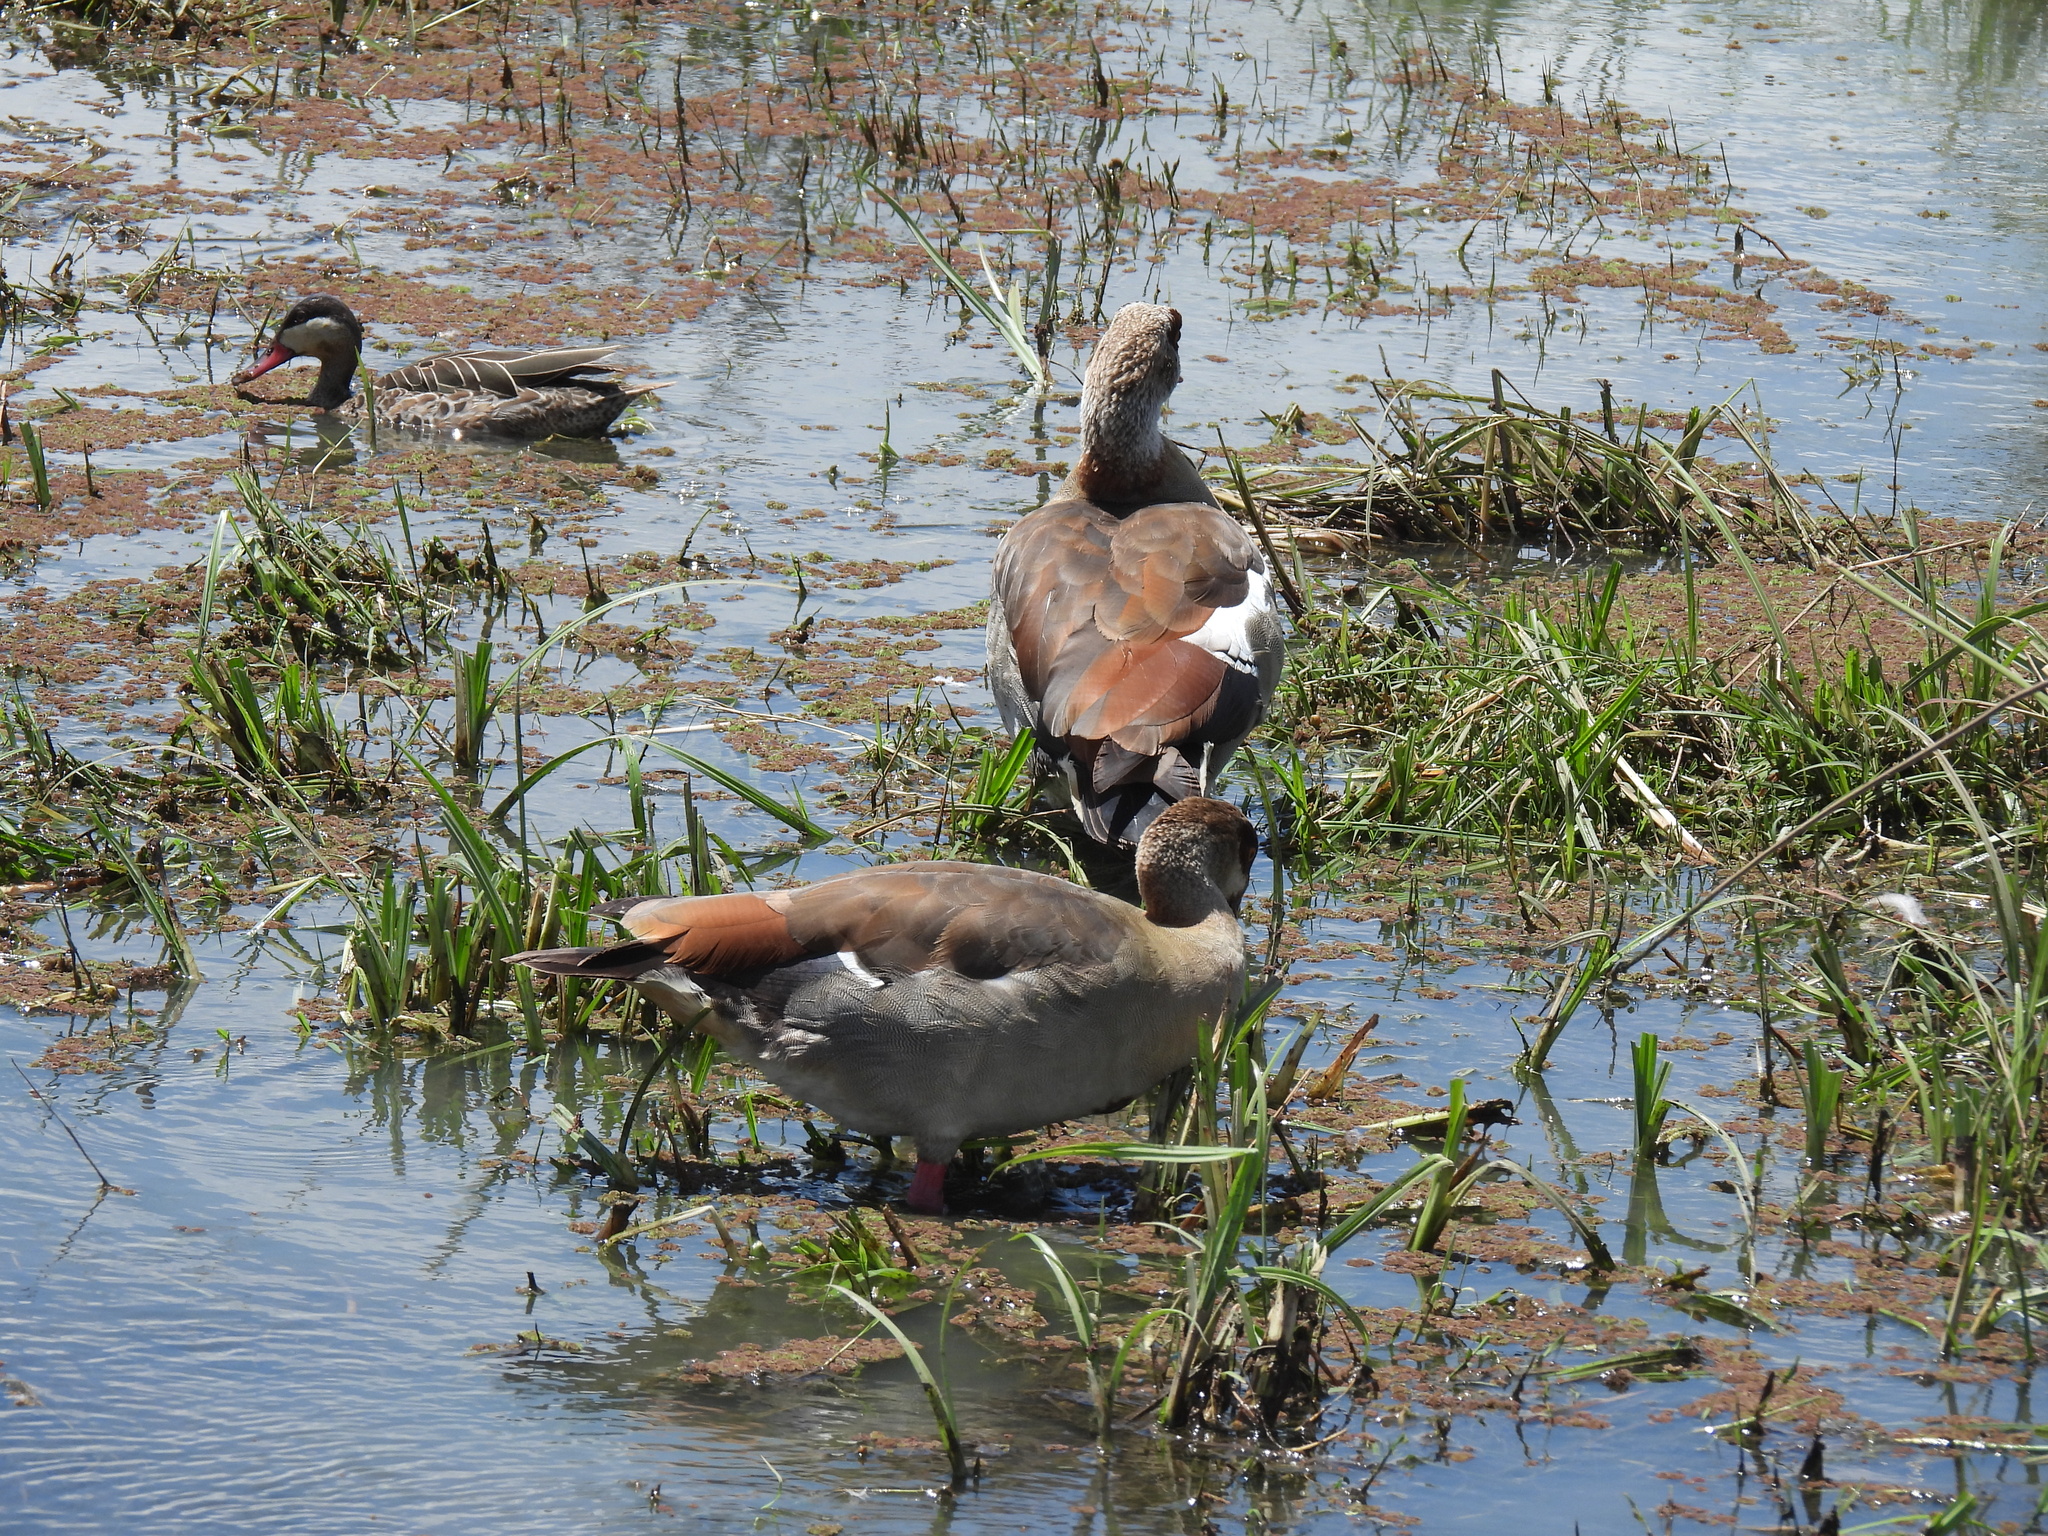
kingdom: Animalia
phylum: Chordata
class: Aves
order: Anseriformes
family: Anatidae
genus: Alopochen
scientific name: Alopochen aegyptiaca
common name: Egyptian goose
